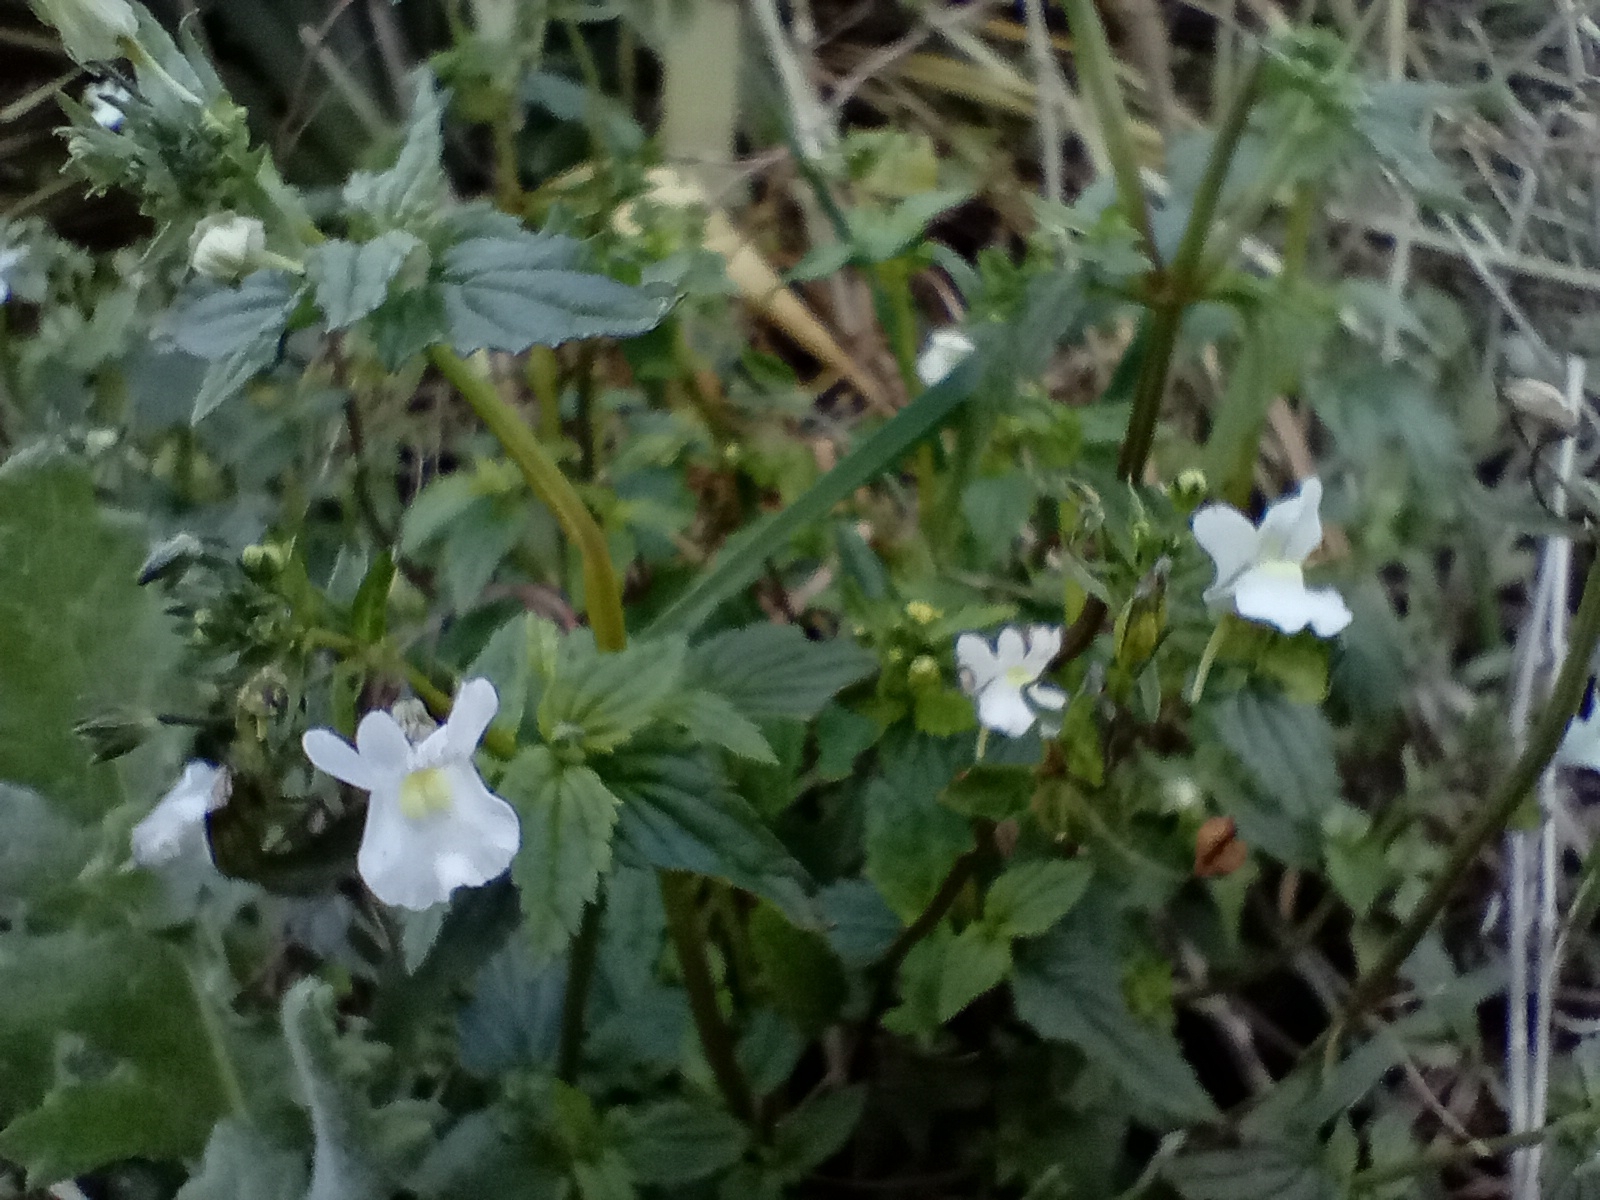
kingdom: Plantae
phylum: Tracheophyta
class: Magnoliopsida
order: Lamiales
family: Scrophulariaceae
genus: Nemesia
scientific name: Nemesia floribunda
